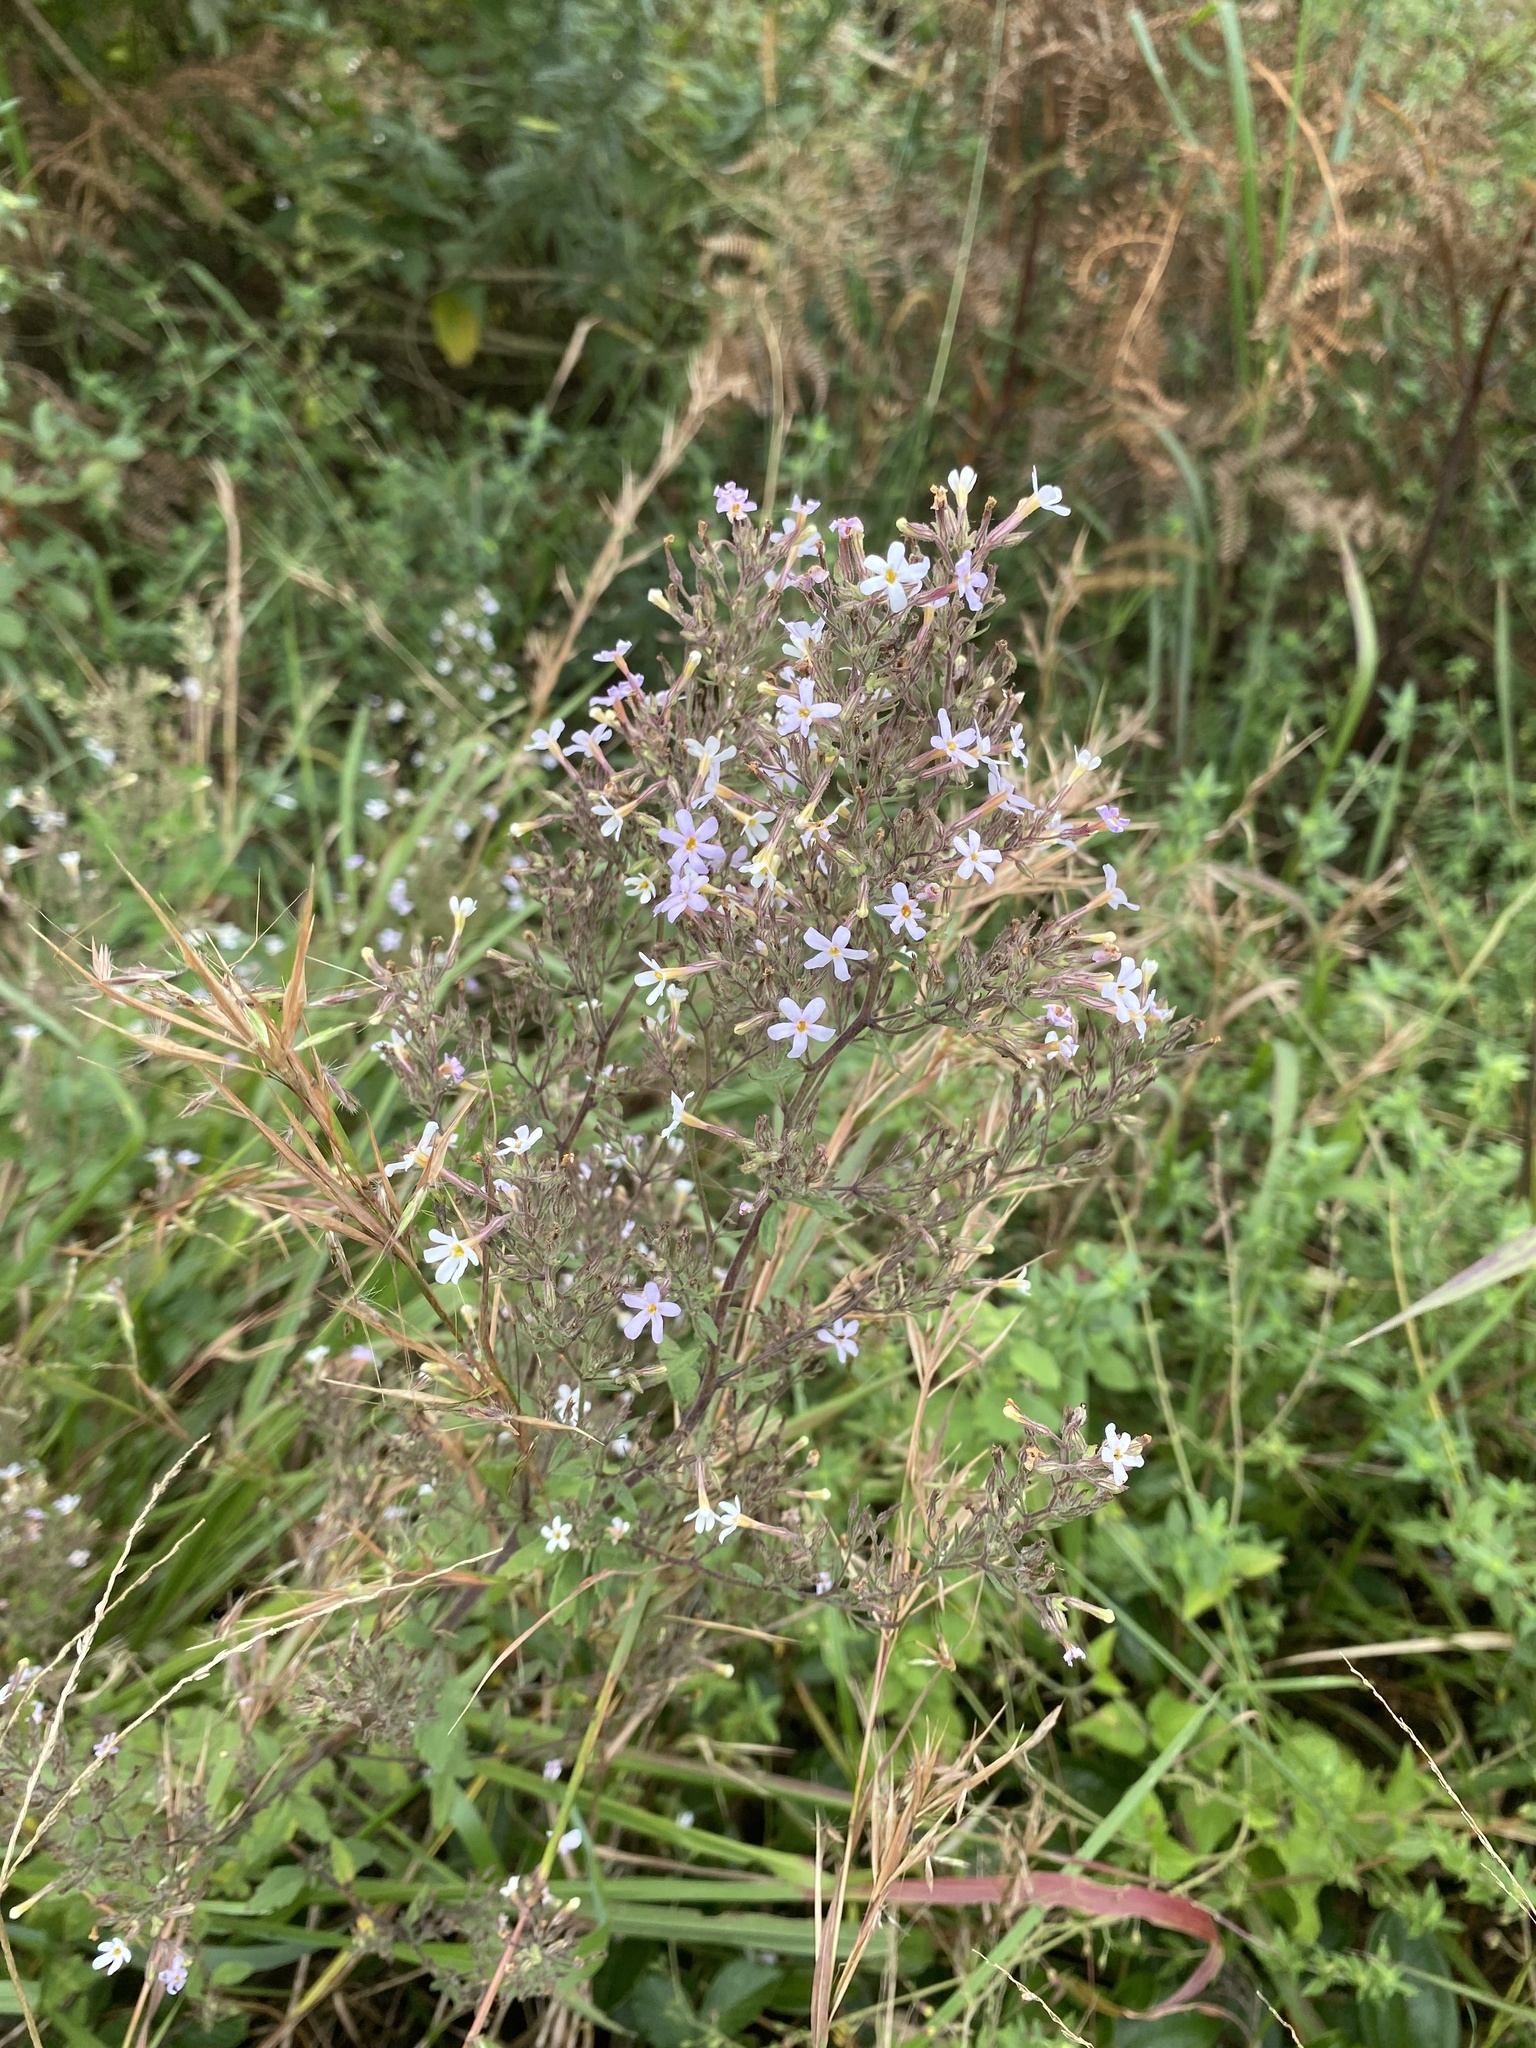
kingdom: Plantae
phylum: Tracheophyta
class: Magnoliopsida
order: Lamiales
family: Scrophulariaceae
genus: Chaenostoma
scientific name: Chaenostoma floribundum
